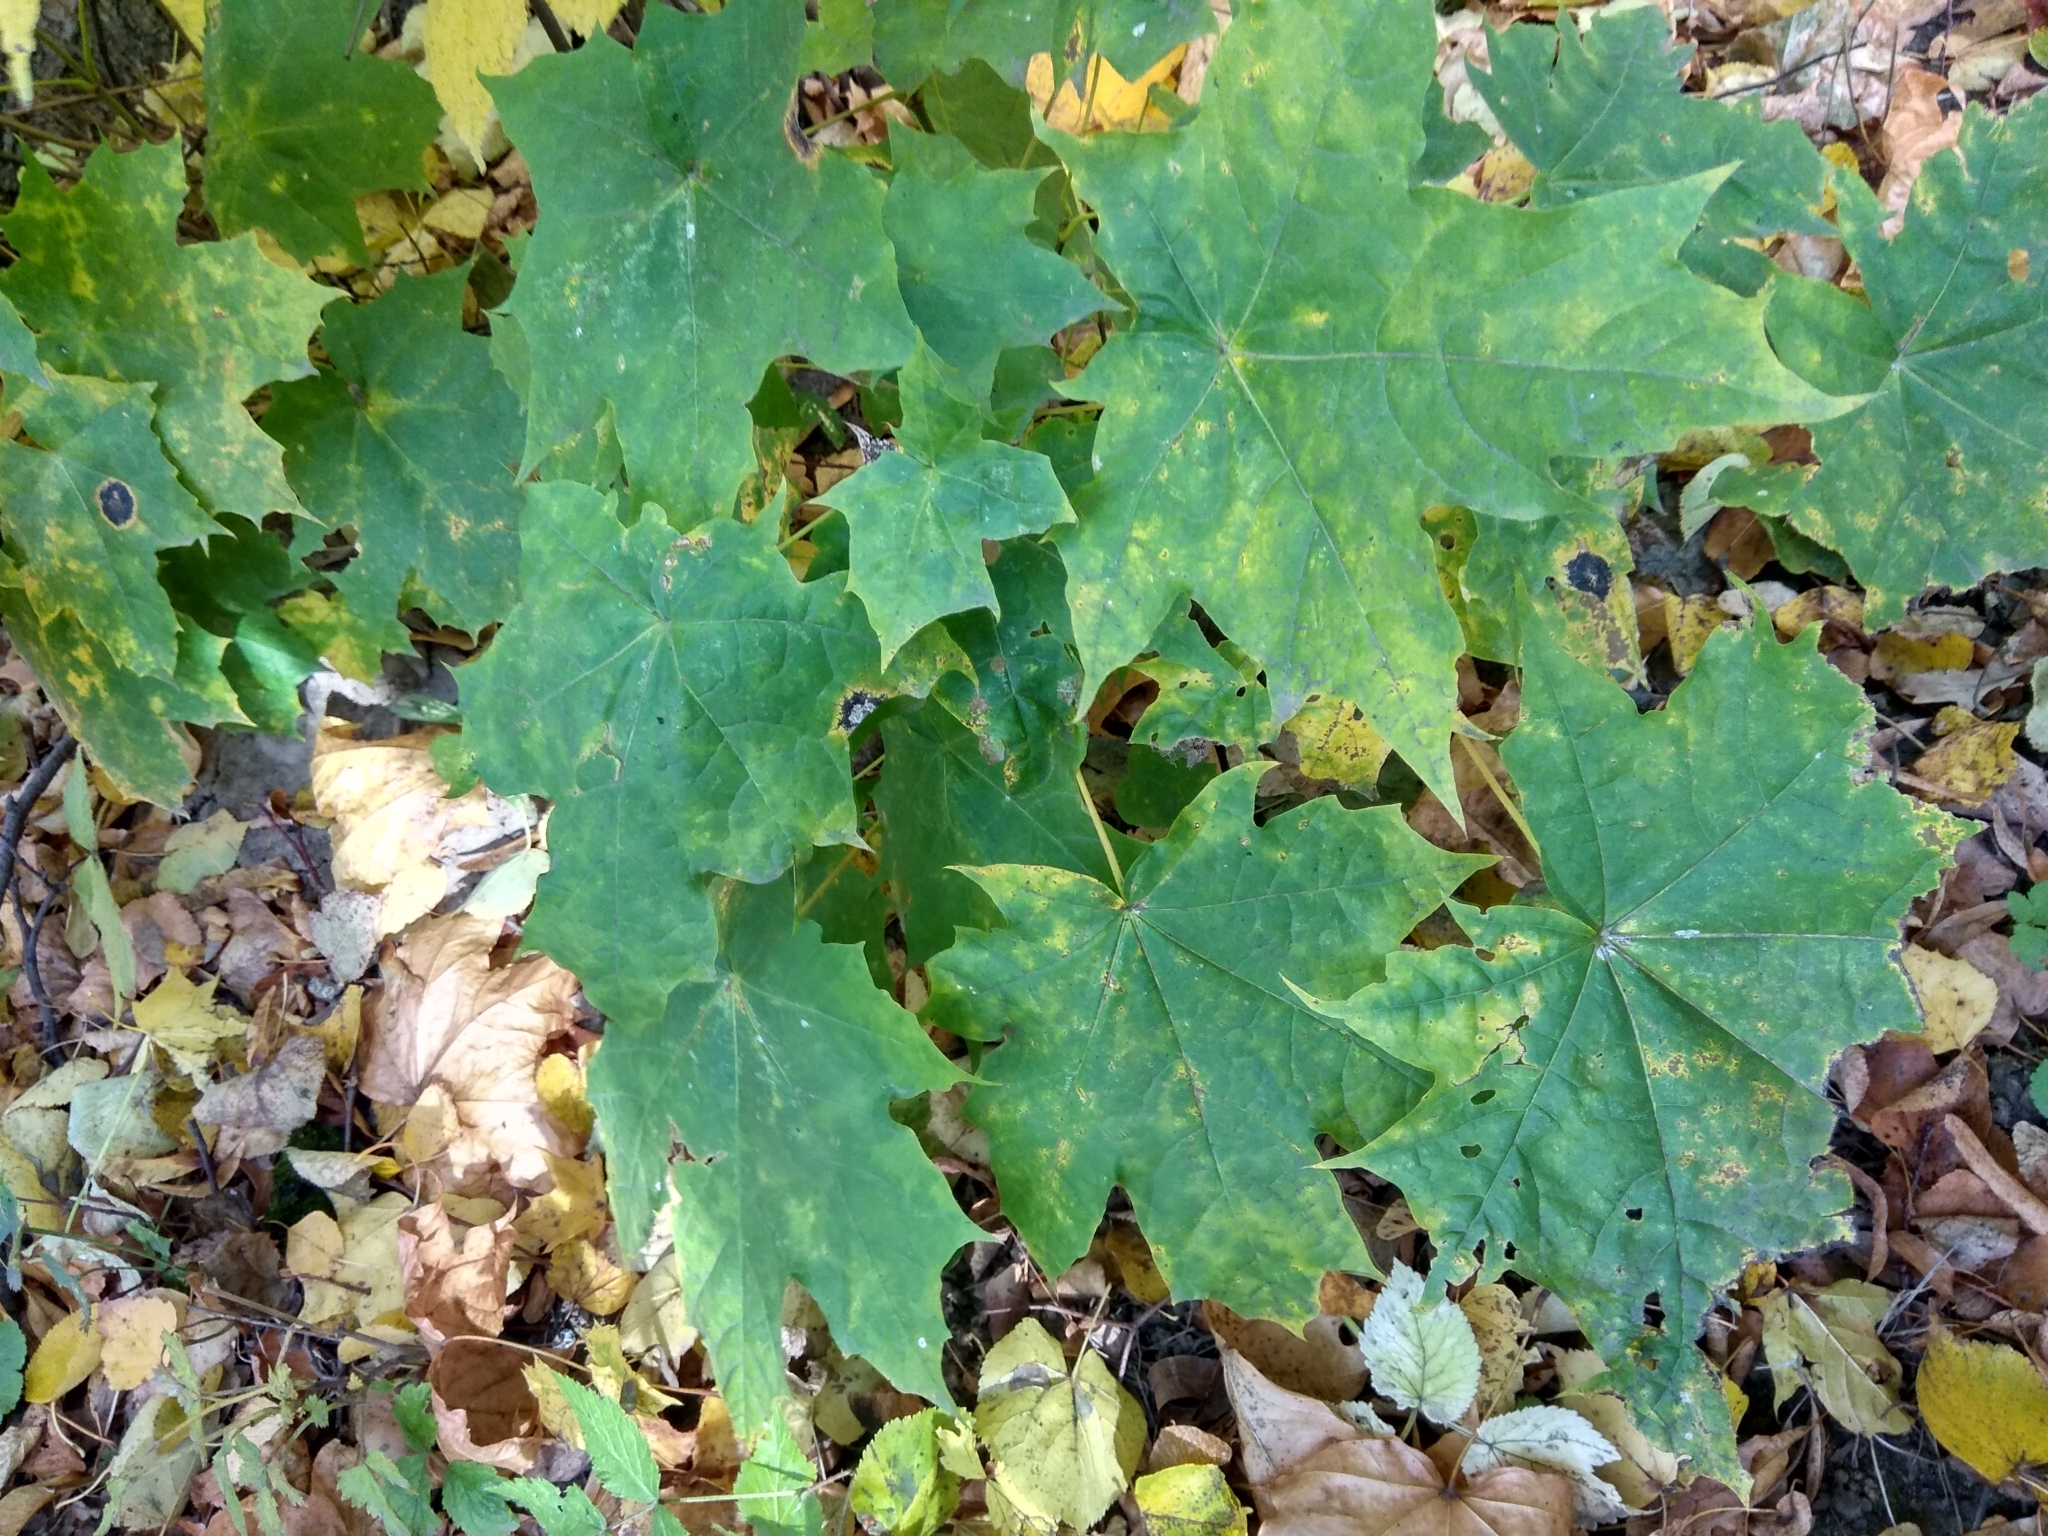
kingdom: Plantae
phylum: Tracheophyta
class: Magnoliopsida
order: Sapindales
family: Sapindaceae
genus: Acer
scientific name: Acer platanoides
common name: Norway maple
